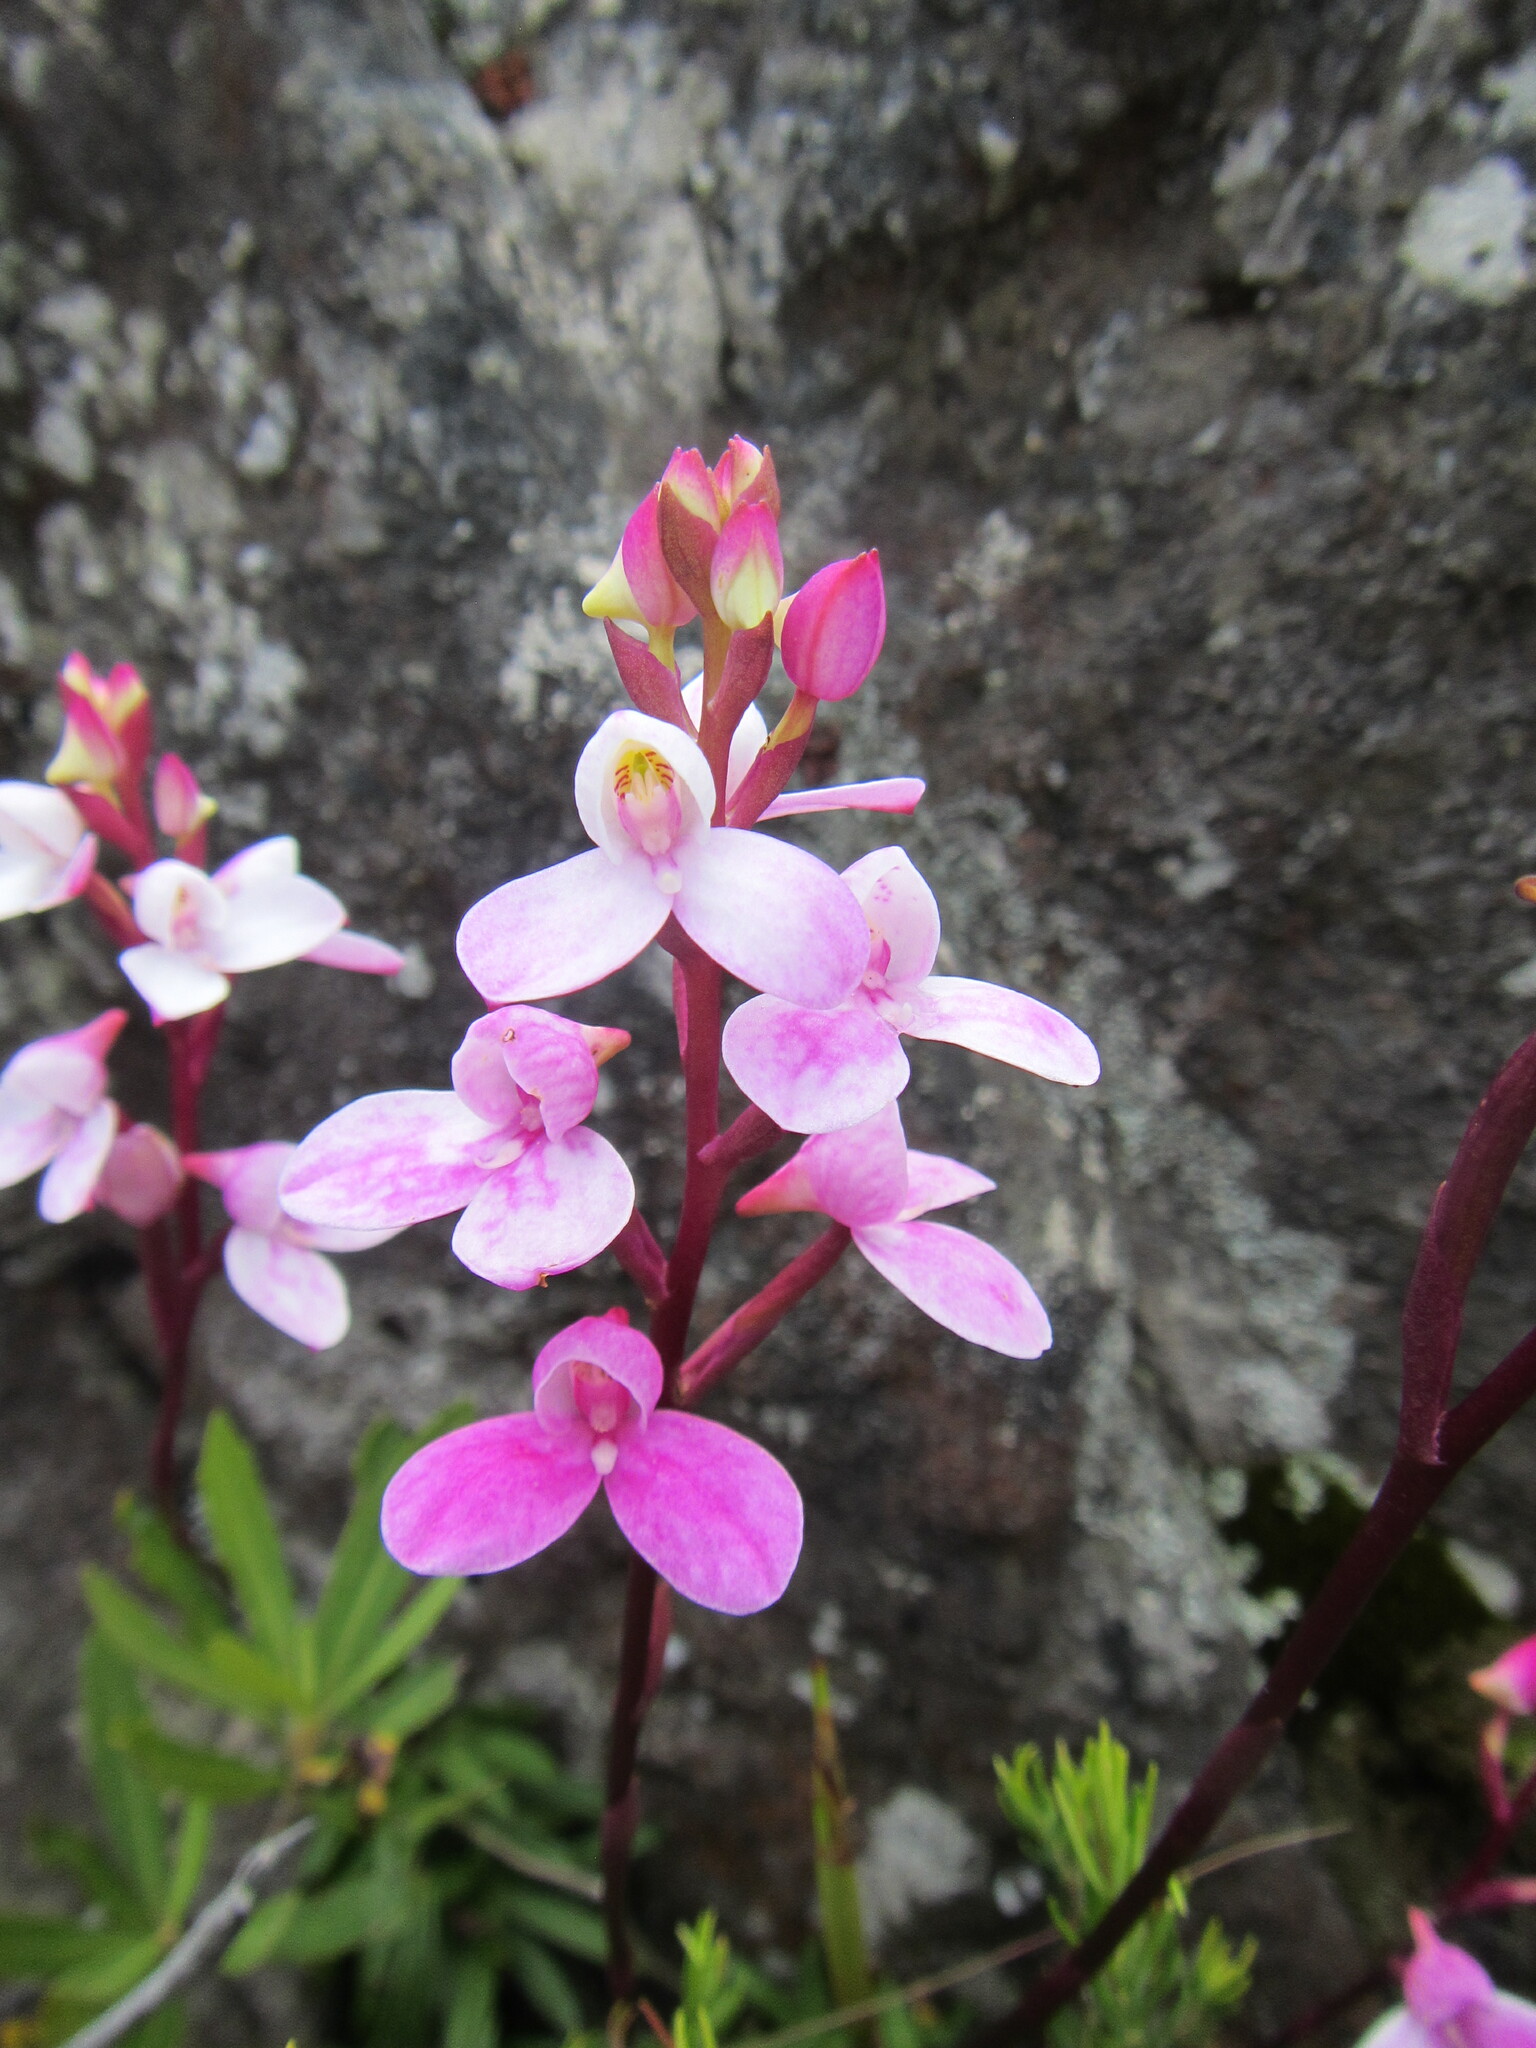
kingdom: Plantae
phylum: Tracheophyta
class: Liliopsida
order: Asparagales
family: Orchidaceae
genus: Disa
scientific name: Disa tripetaloides
